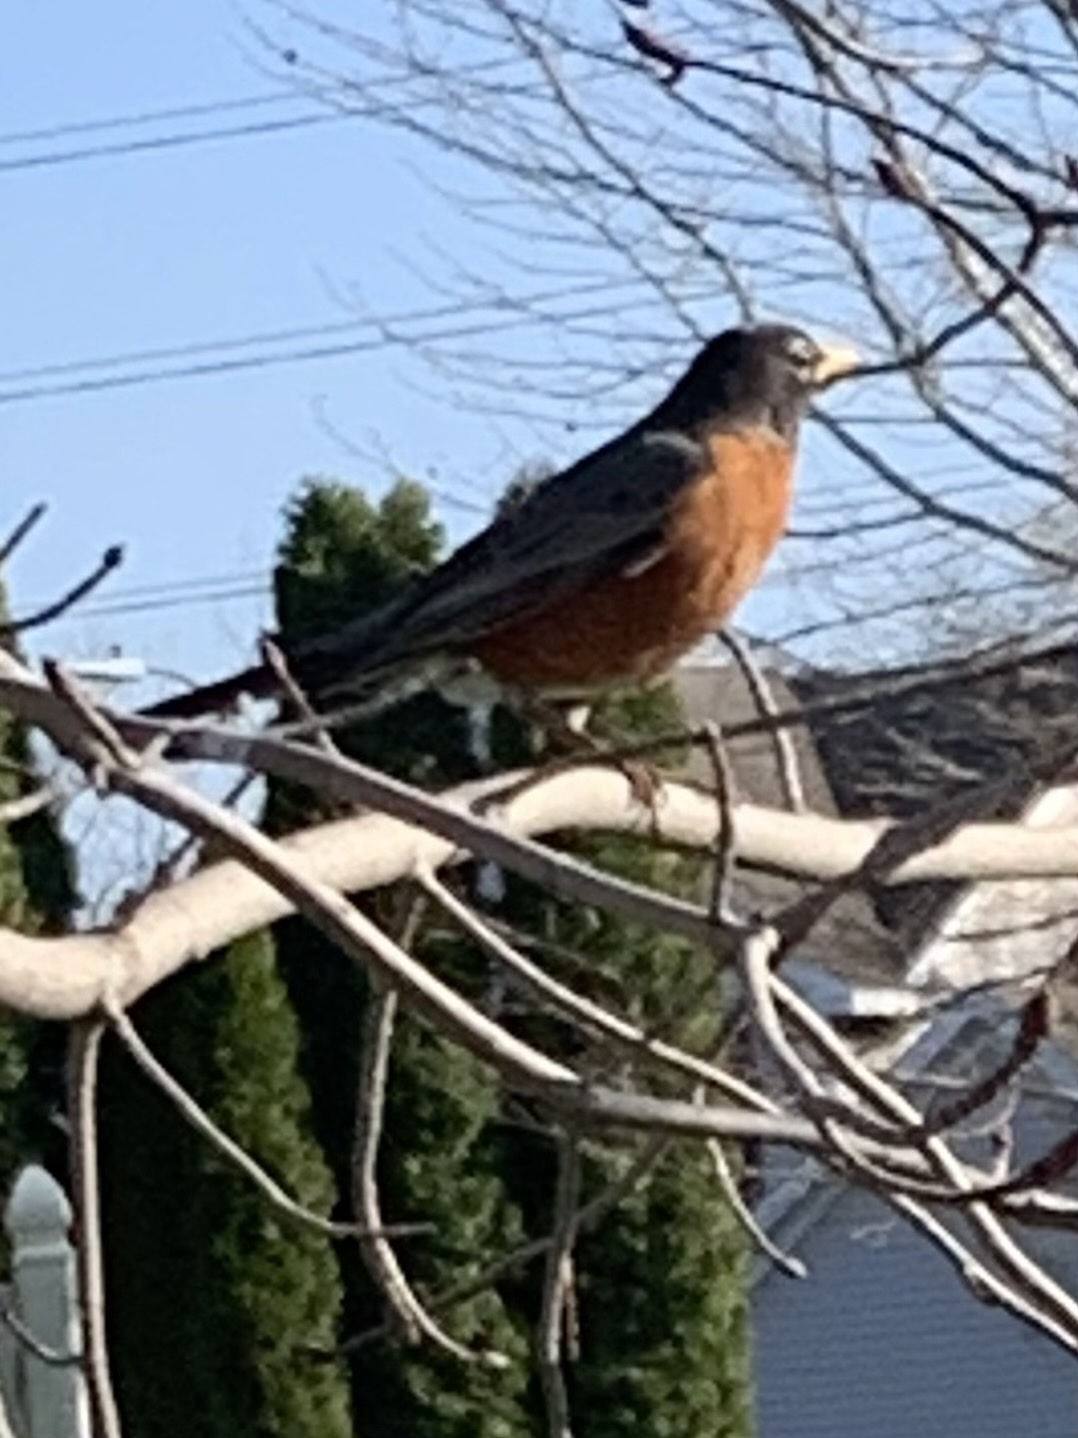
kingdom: Animalia
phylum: Chordata
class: Aves
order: Passeriformes
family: Turdidae
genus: Turdus
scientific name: Turdus migratorius
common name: American robin
